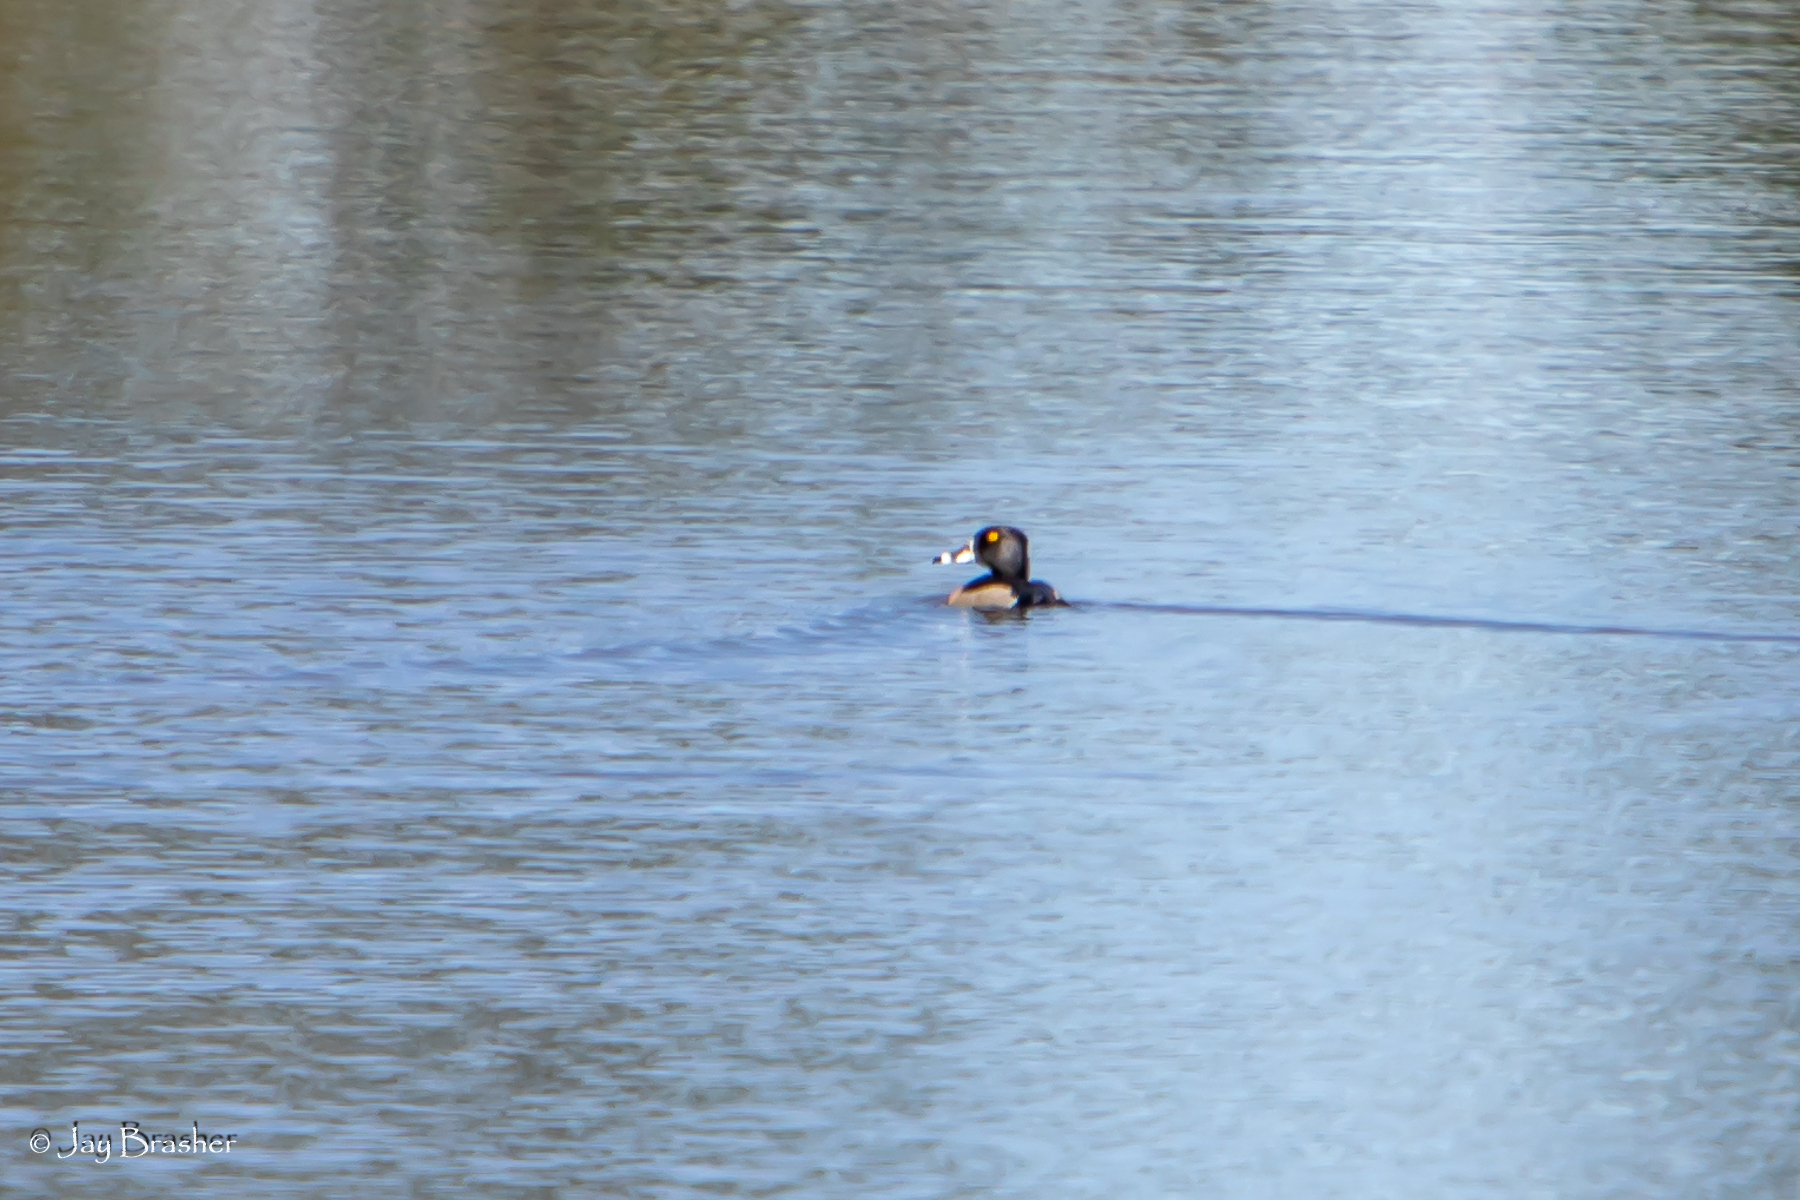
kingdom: Animalia
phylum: Chordata
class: Aves
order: Anseriformes
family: Anatidae
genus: Aythya
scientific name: Aythya collaris
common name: Ring-necked duck
